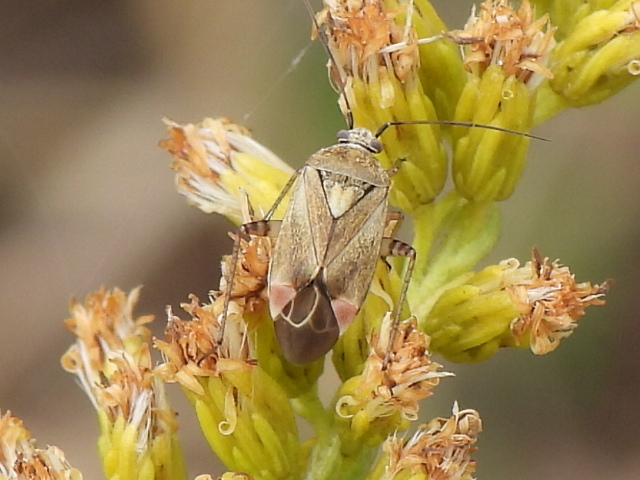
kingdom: Animalia
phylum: Arthropoda
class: Insecta
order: Hemiptera
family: Miridae
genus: Polymerus
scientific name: Polymerus basalis
